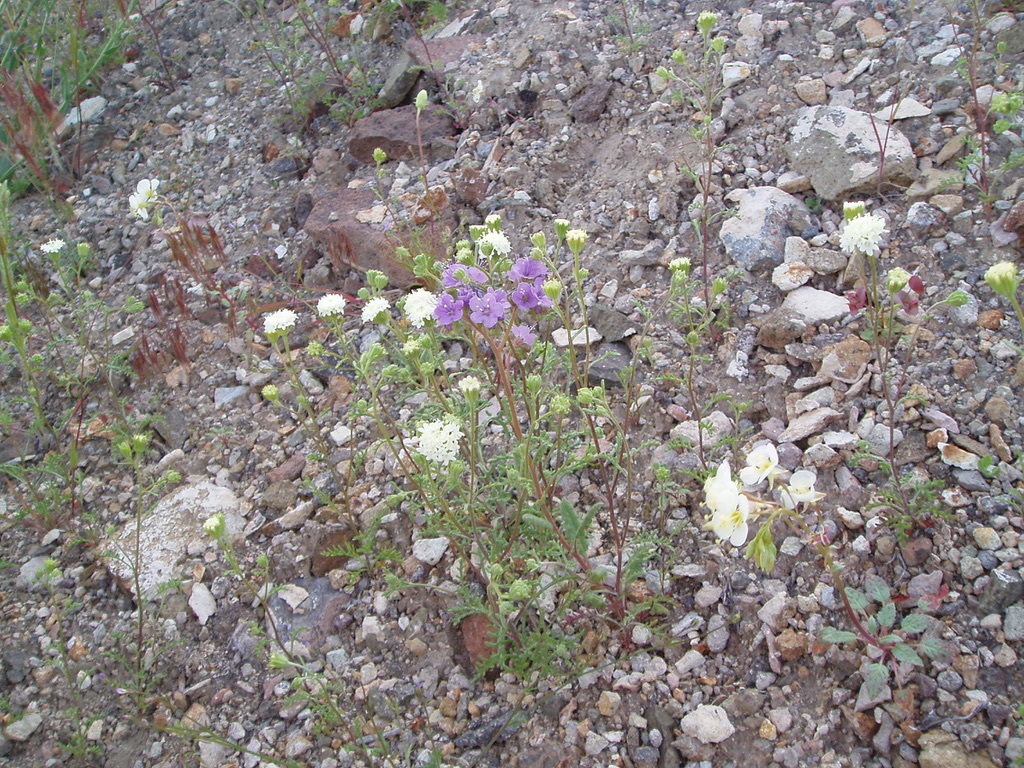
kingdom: Plantae
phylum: Tracheophyta
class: Magnoliopsida
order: Boraginales
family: Hydrophyllaceae
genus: Phacelia
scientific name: Phacelia crenulata
